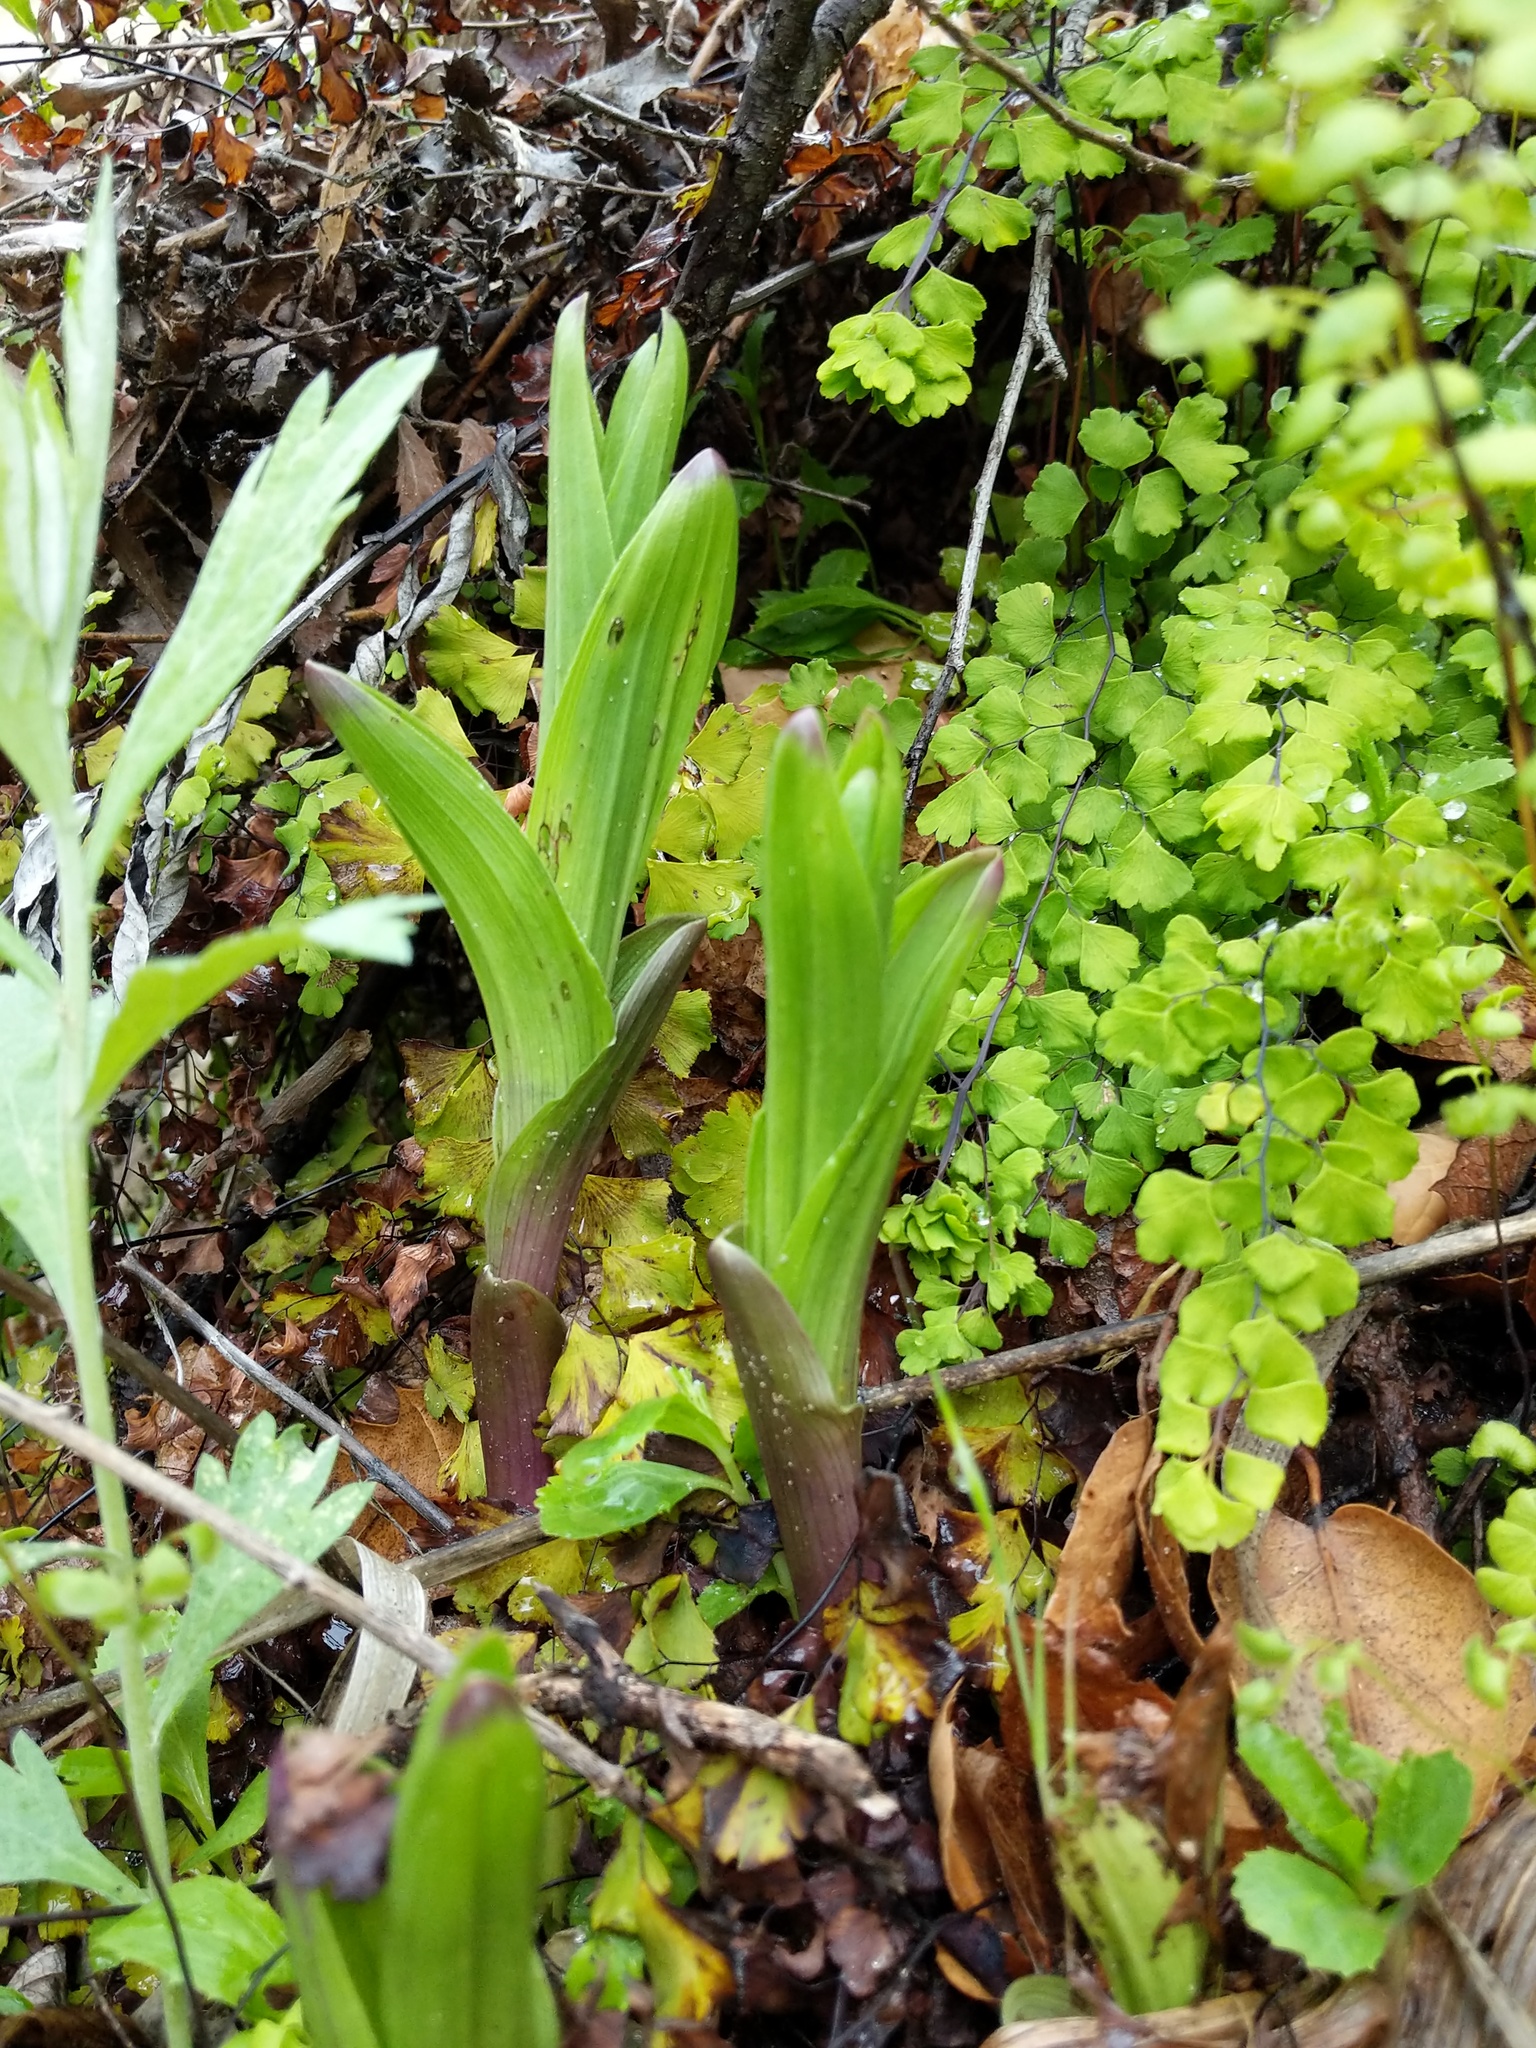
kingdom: Plantae
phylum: Tracheophyta
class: Liliopsida
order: Asparagales
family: Orchidaceae
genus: Epipactis
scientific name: Epipactis gigantea
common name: Chatterbox
